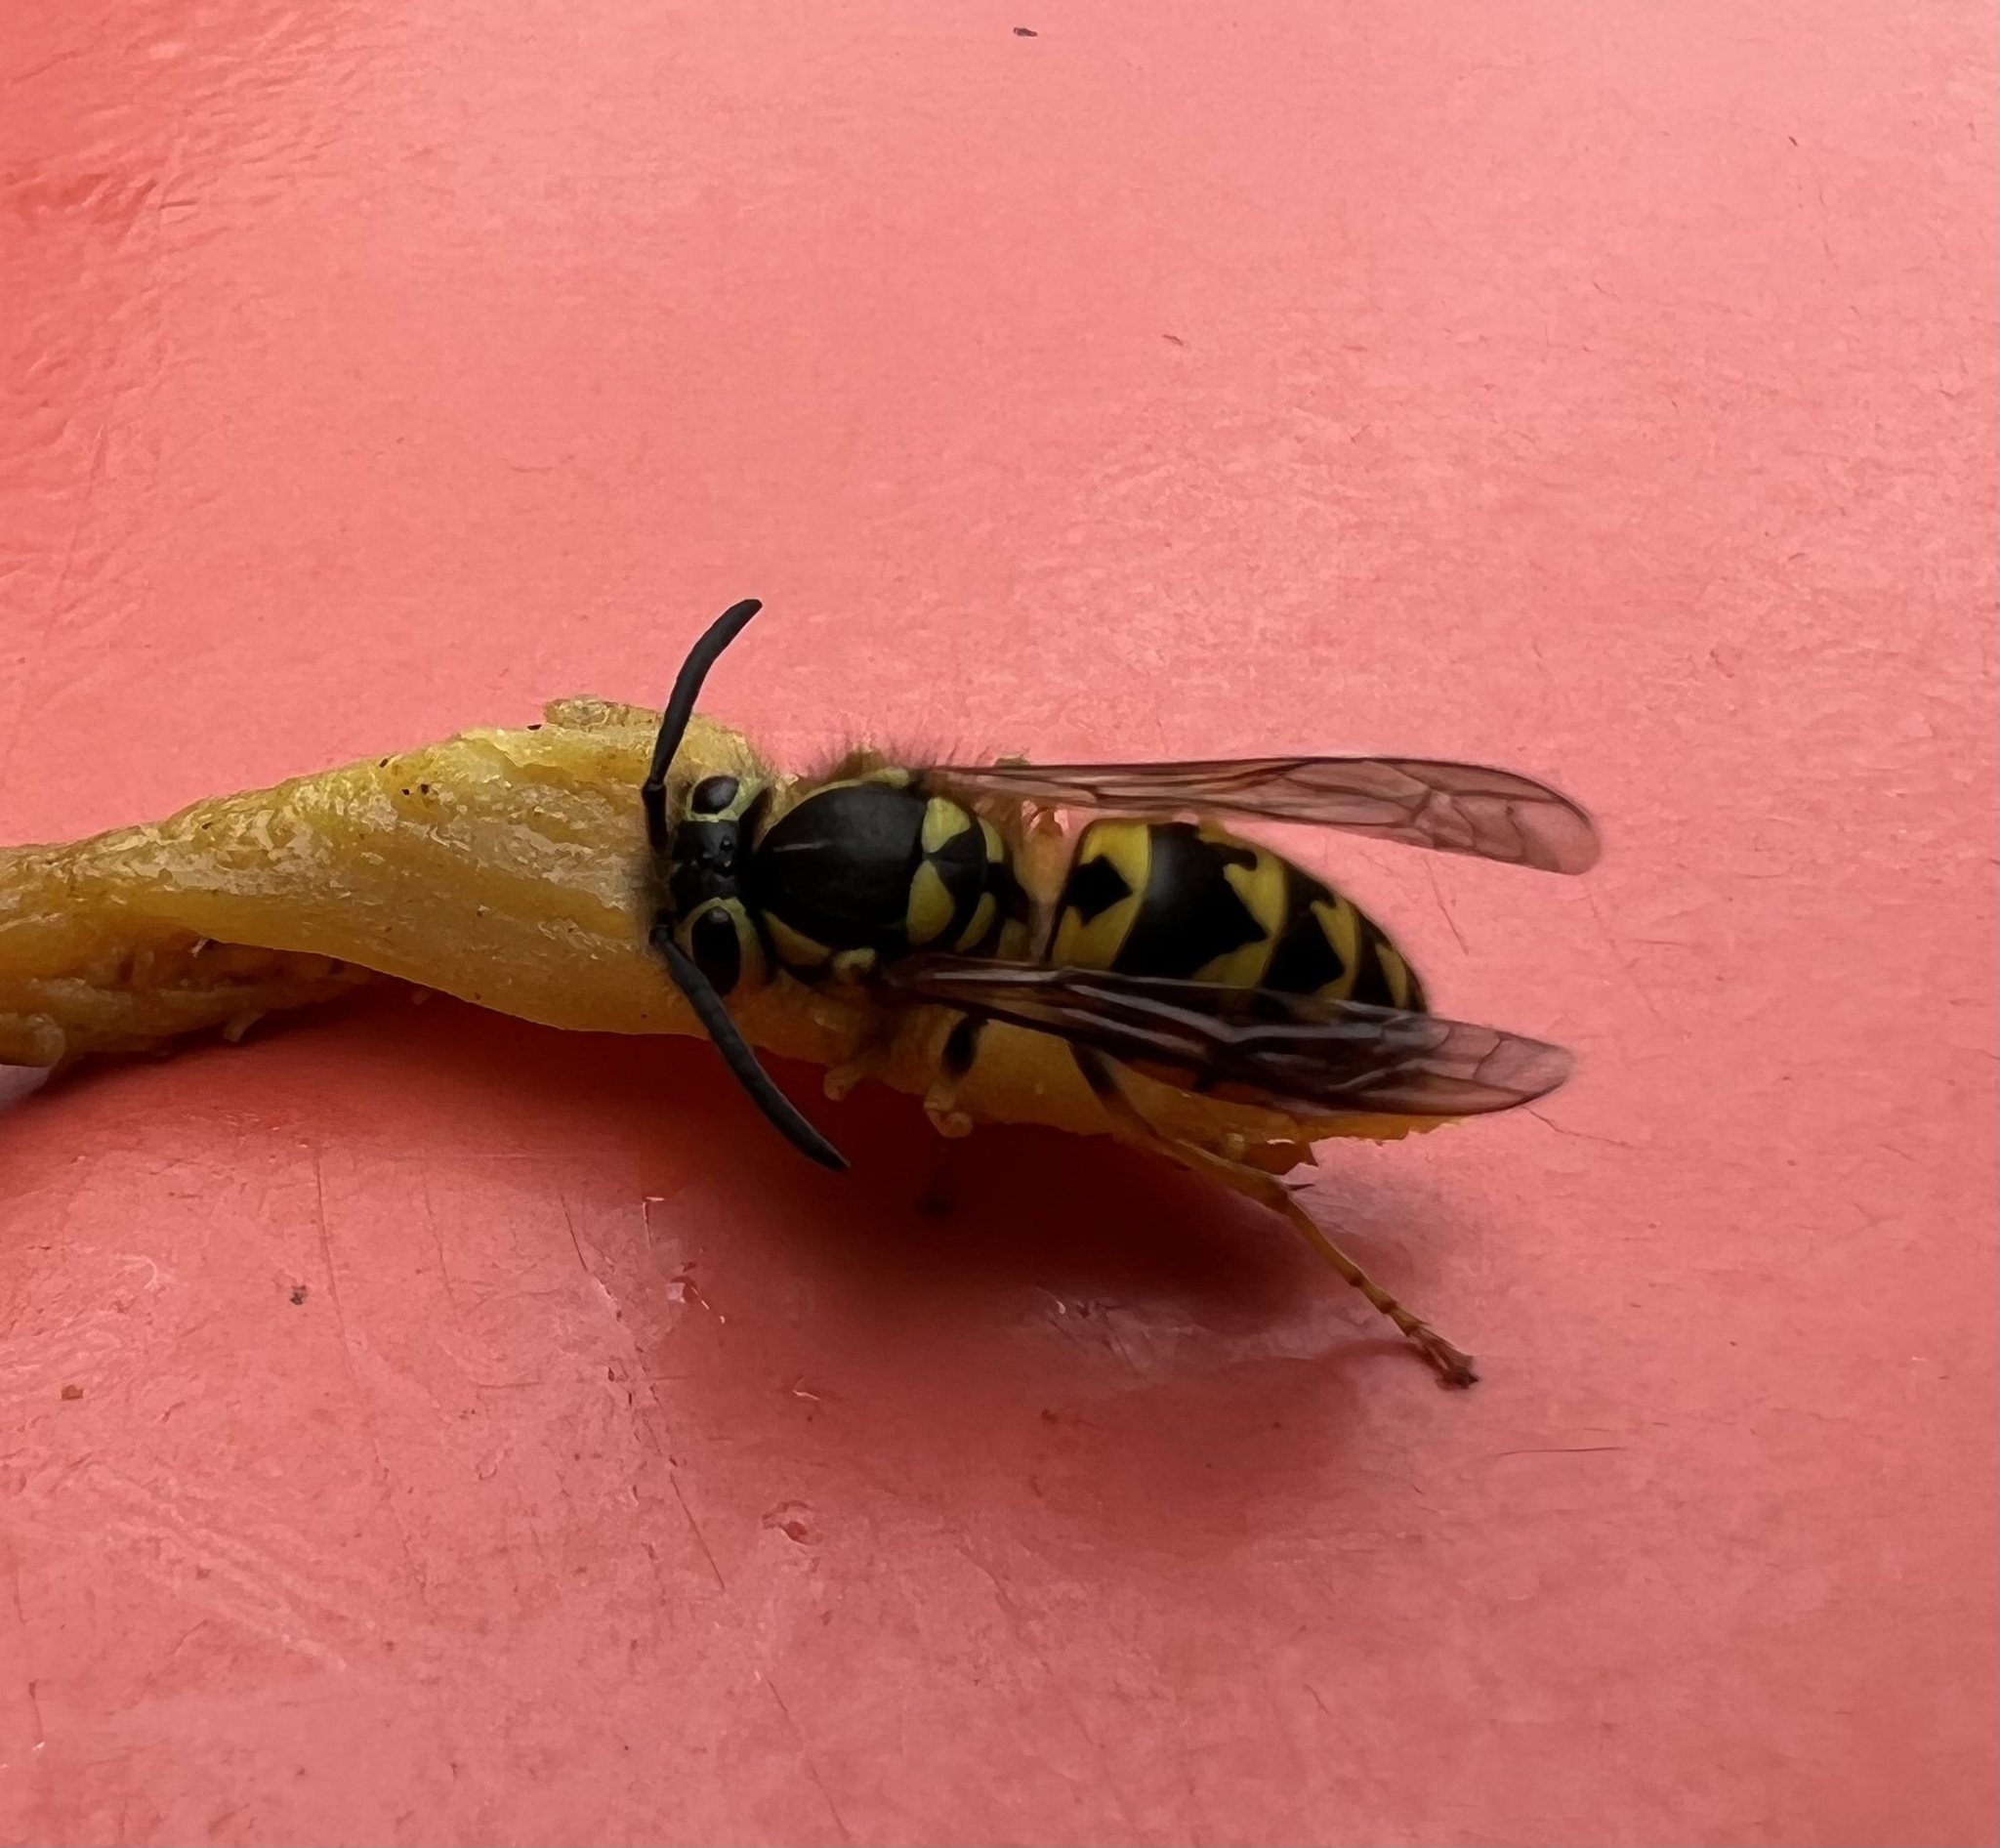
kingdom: Animalia
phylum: Arthropoda
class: Insecta
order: Hymenoptera
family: Vespidae
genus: Vespula
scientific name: Vespula pensylvanica
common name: Western yellowjacket
